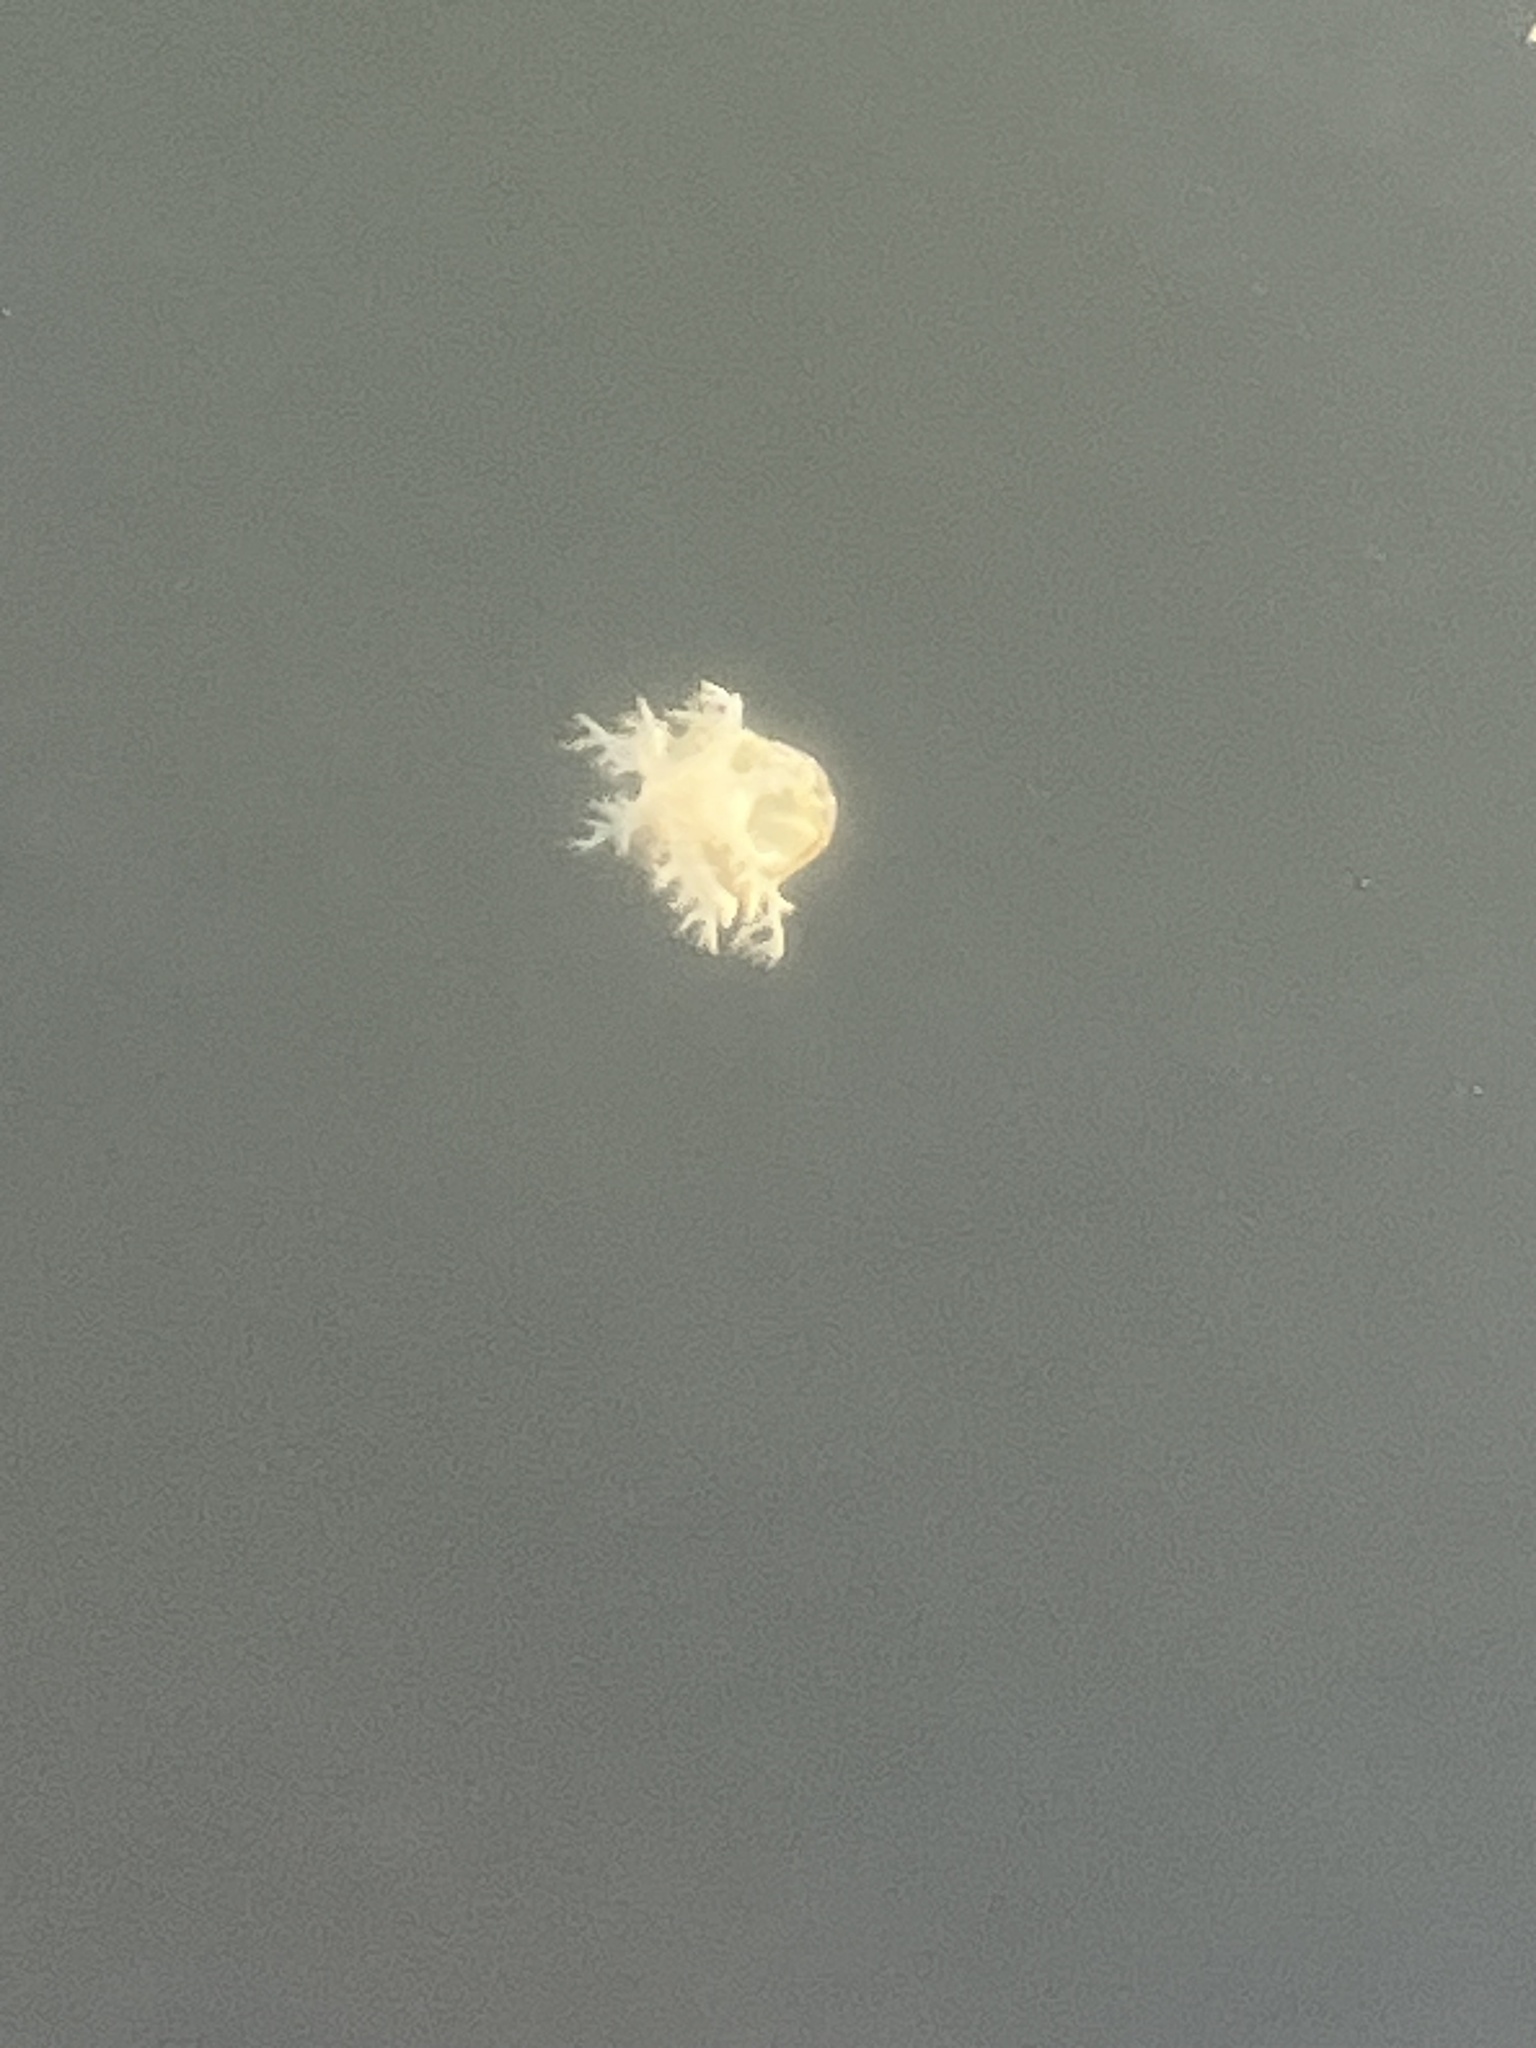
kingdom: Animalia
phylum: Cnidaria
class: Scyphozoa
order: Rhizostomeae
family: Cassiopeidae
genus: Cassiopea
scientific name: Cassiopea andromeda
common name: Upside-down jellyfish
